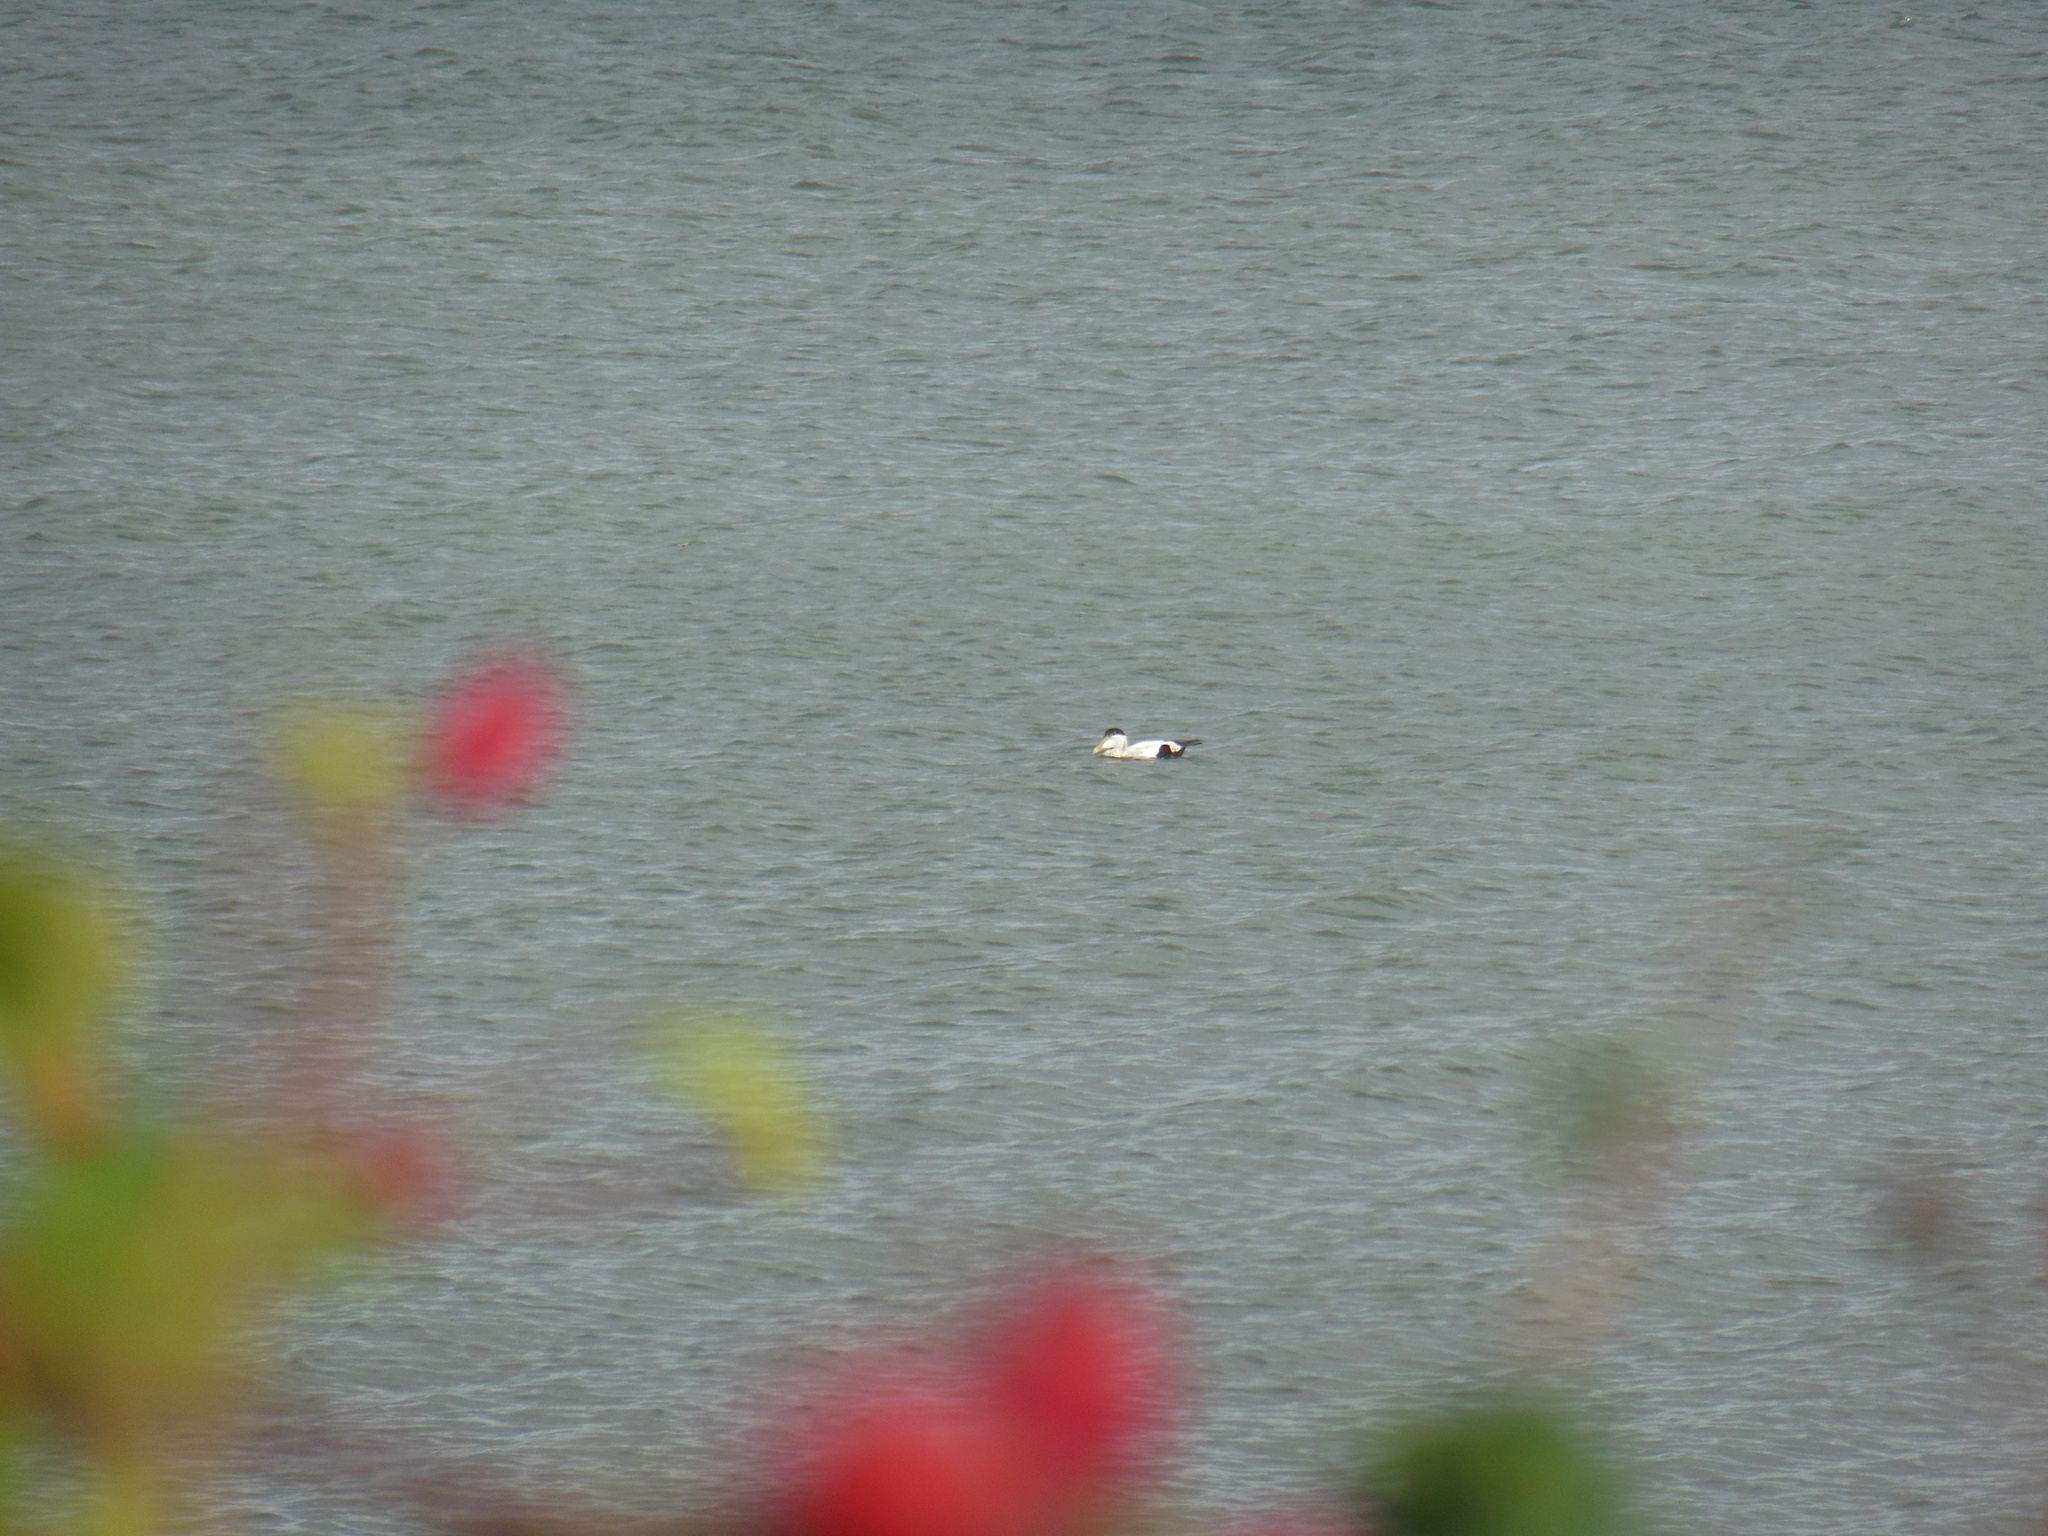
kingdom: Animalia
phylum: Chordata
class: Aves
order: Anseriformes
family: Anatidae
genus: Somateria
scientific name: Somateria mollissima
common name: Common eider
